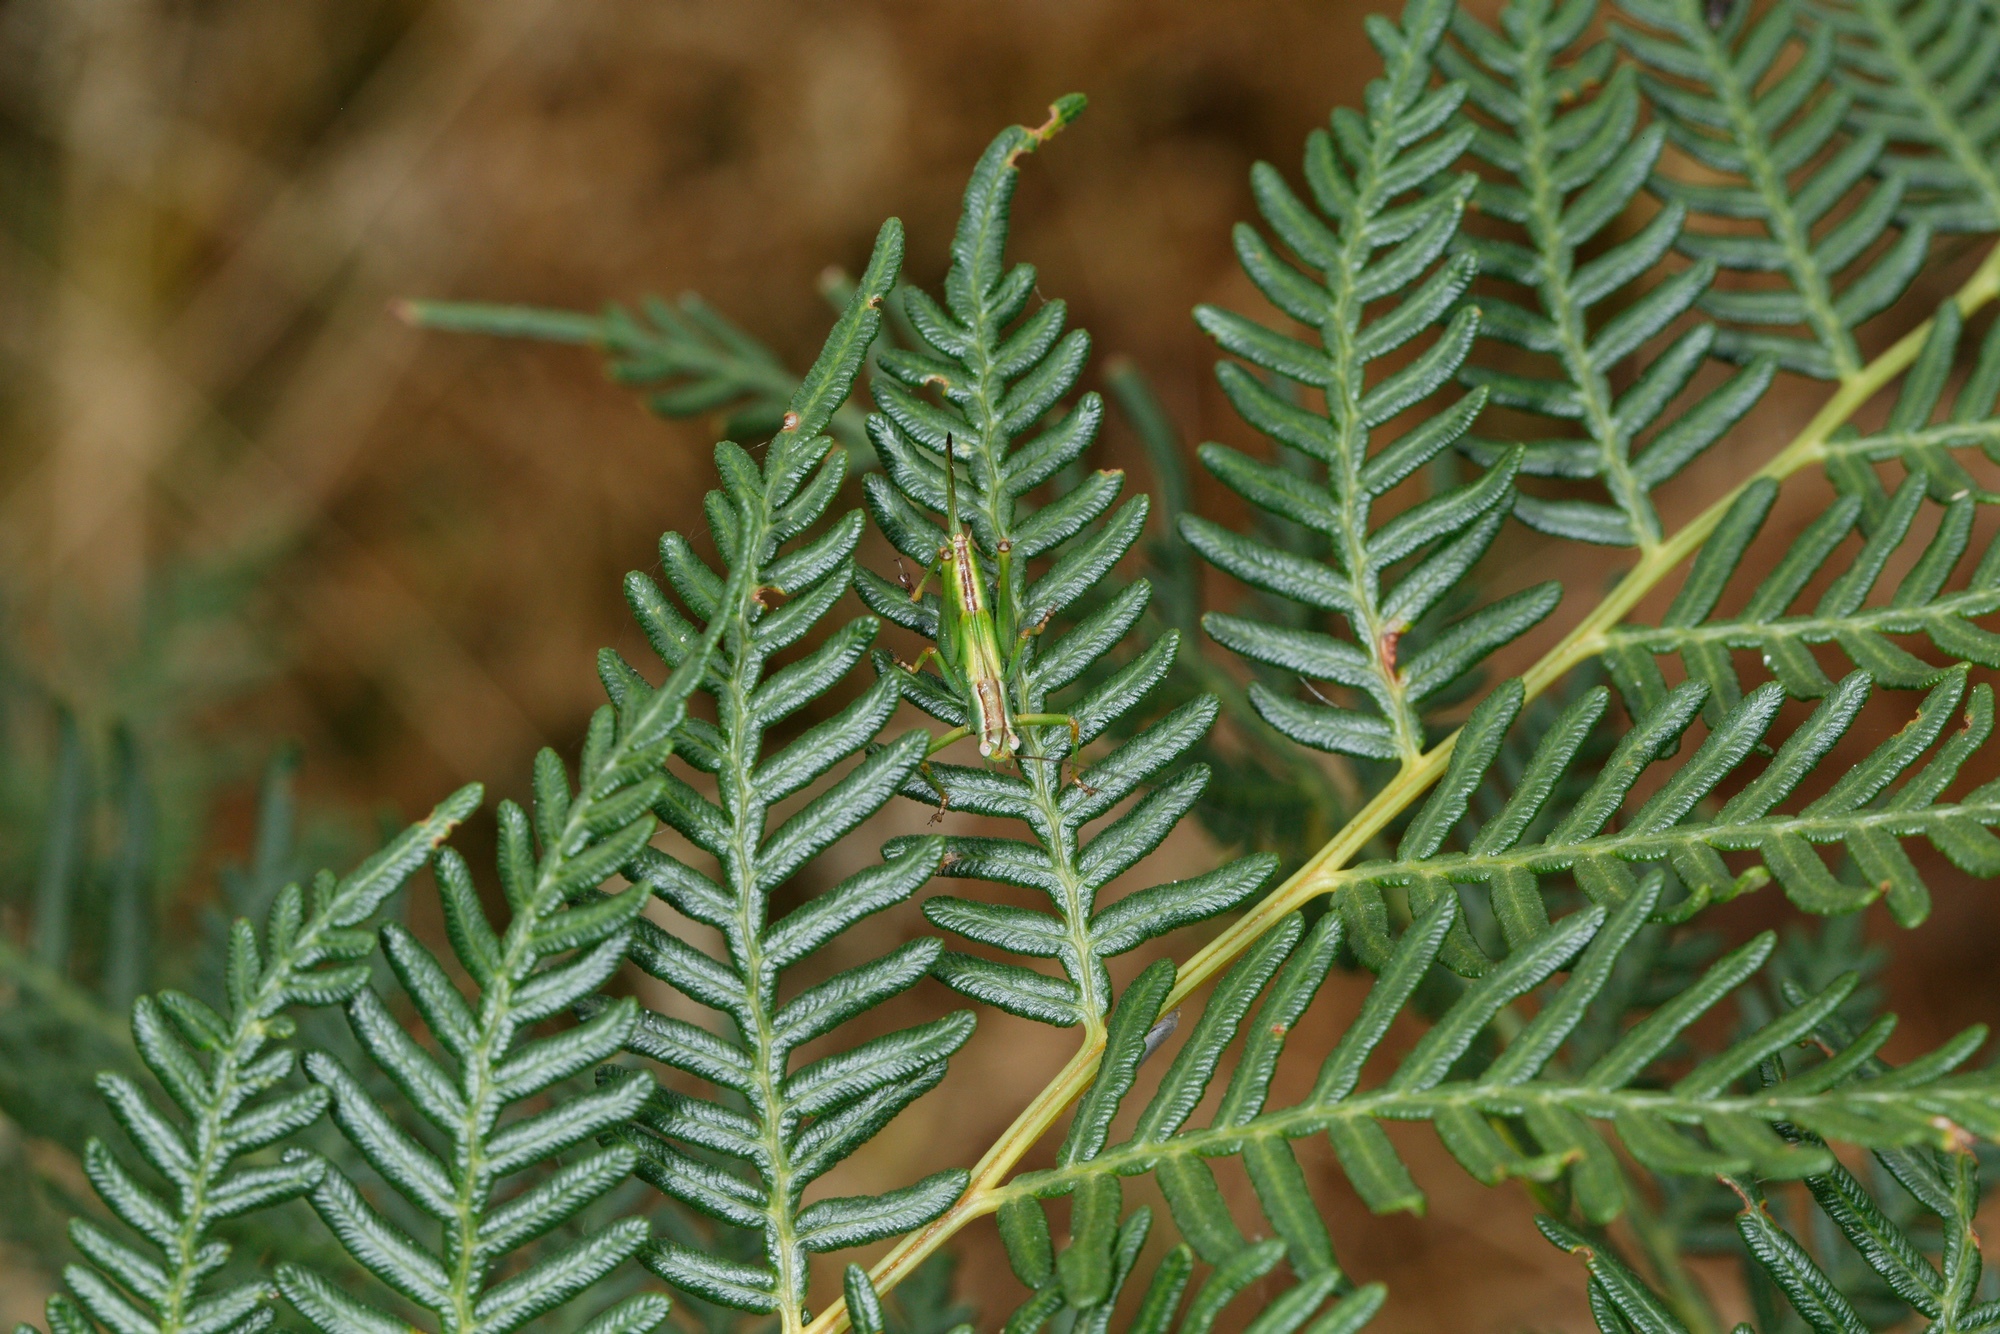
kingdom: Animalia
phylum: Arthropoda
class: Insecta
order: Orthoptera
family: Tettigoniidae
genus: Conocephalomima
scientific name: Conocephalomima barameda
